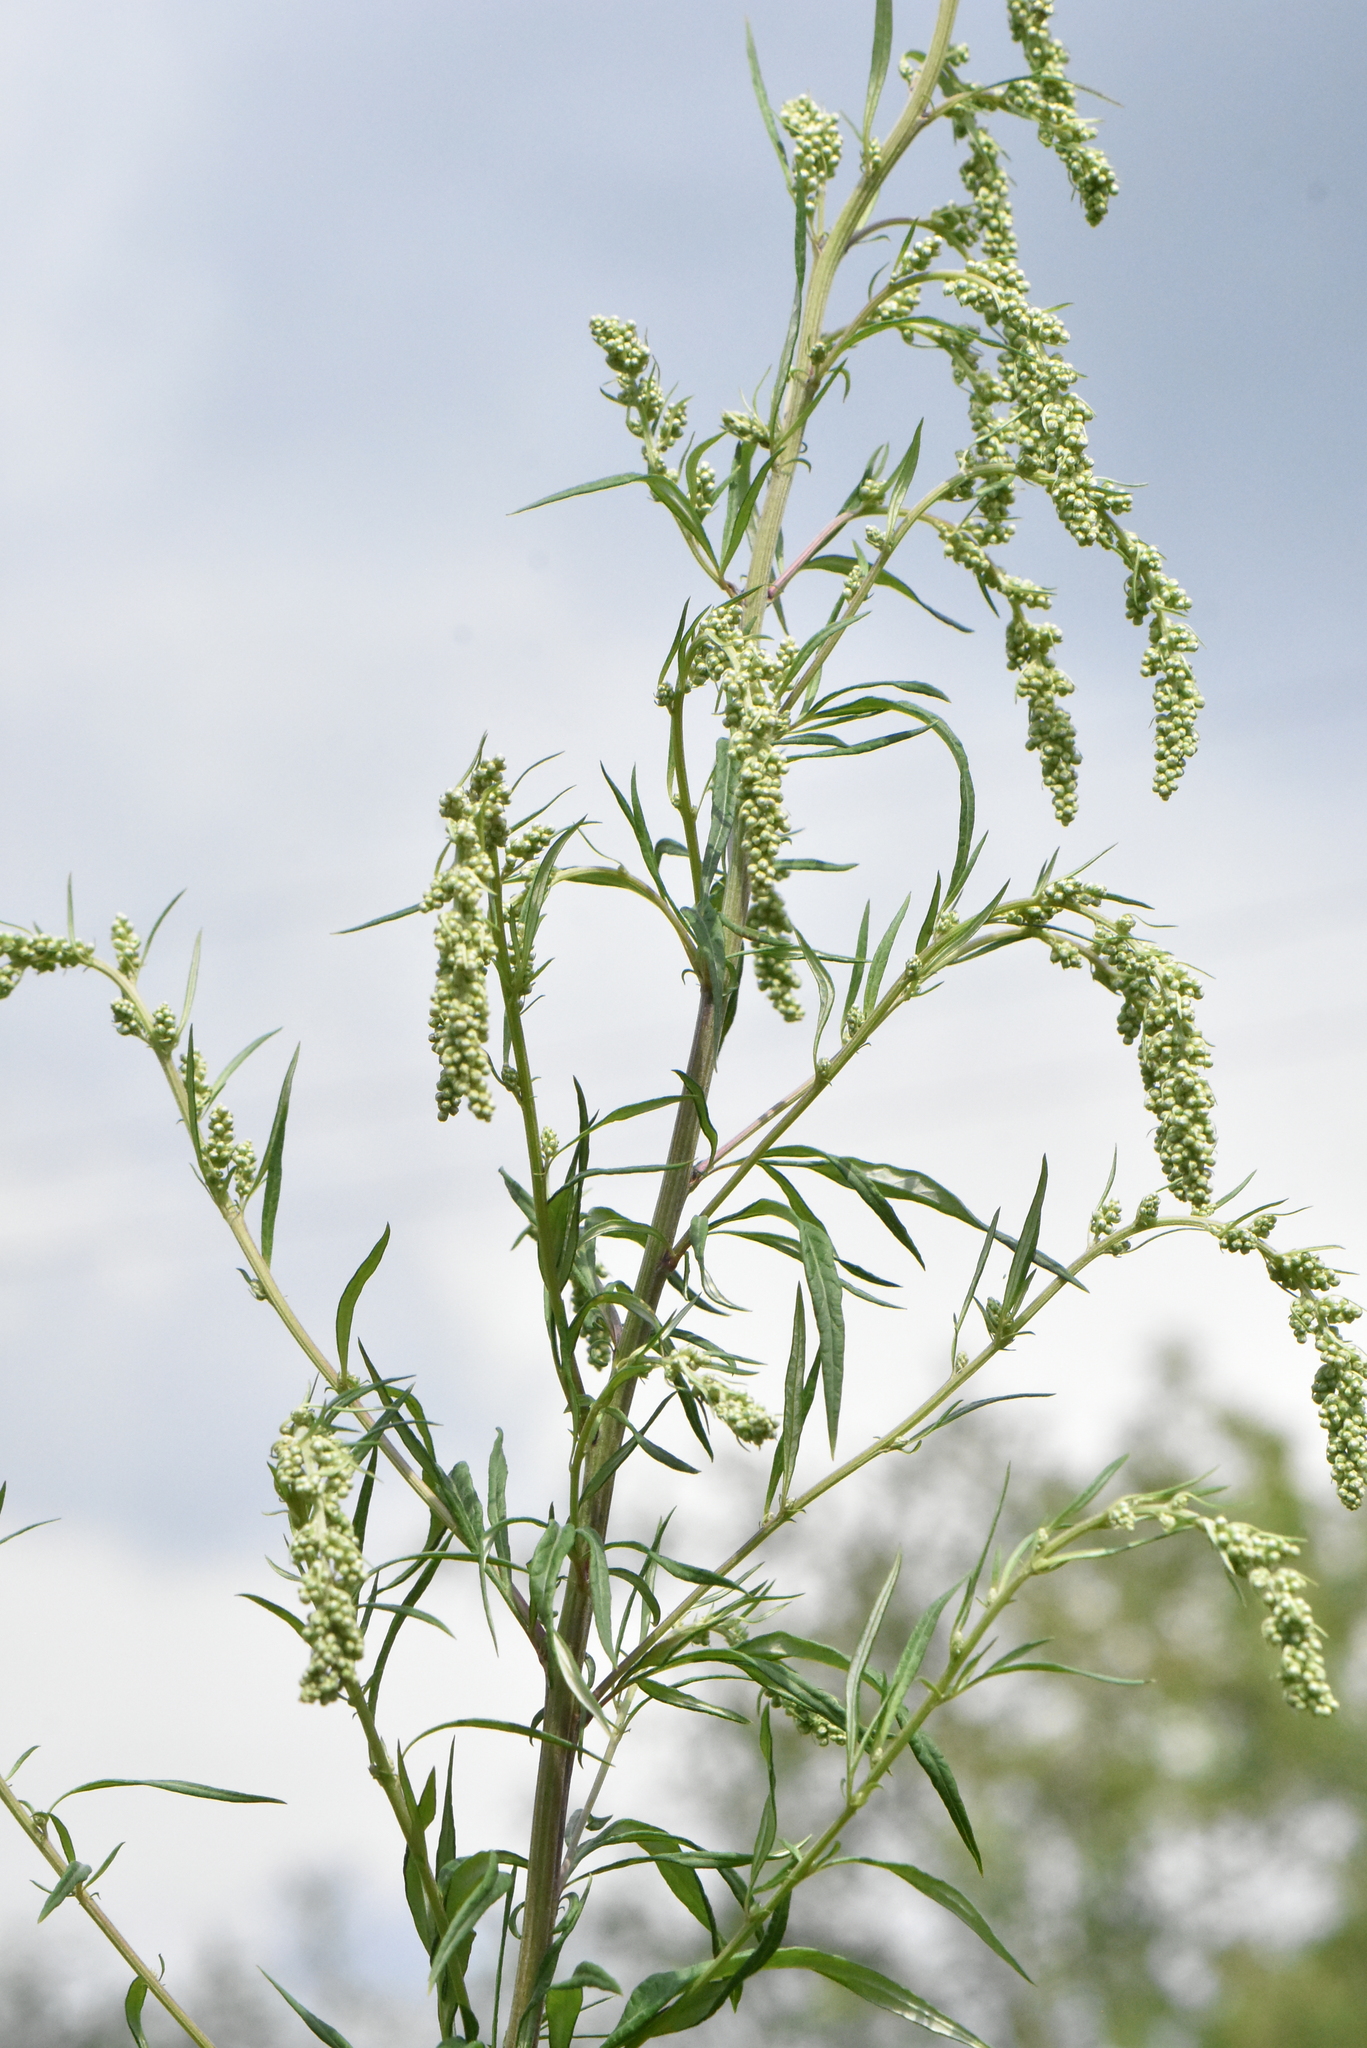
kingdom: Plantae
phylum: Tracheophyta
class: Magnoliopsida
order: Asterales
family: Asteraceae
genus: Artemisia
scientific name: Artemisia vulgaris
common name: Mugwort
